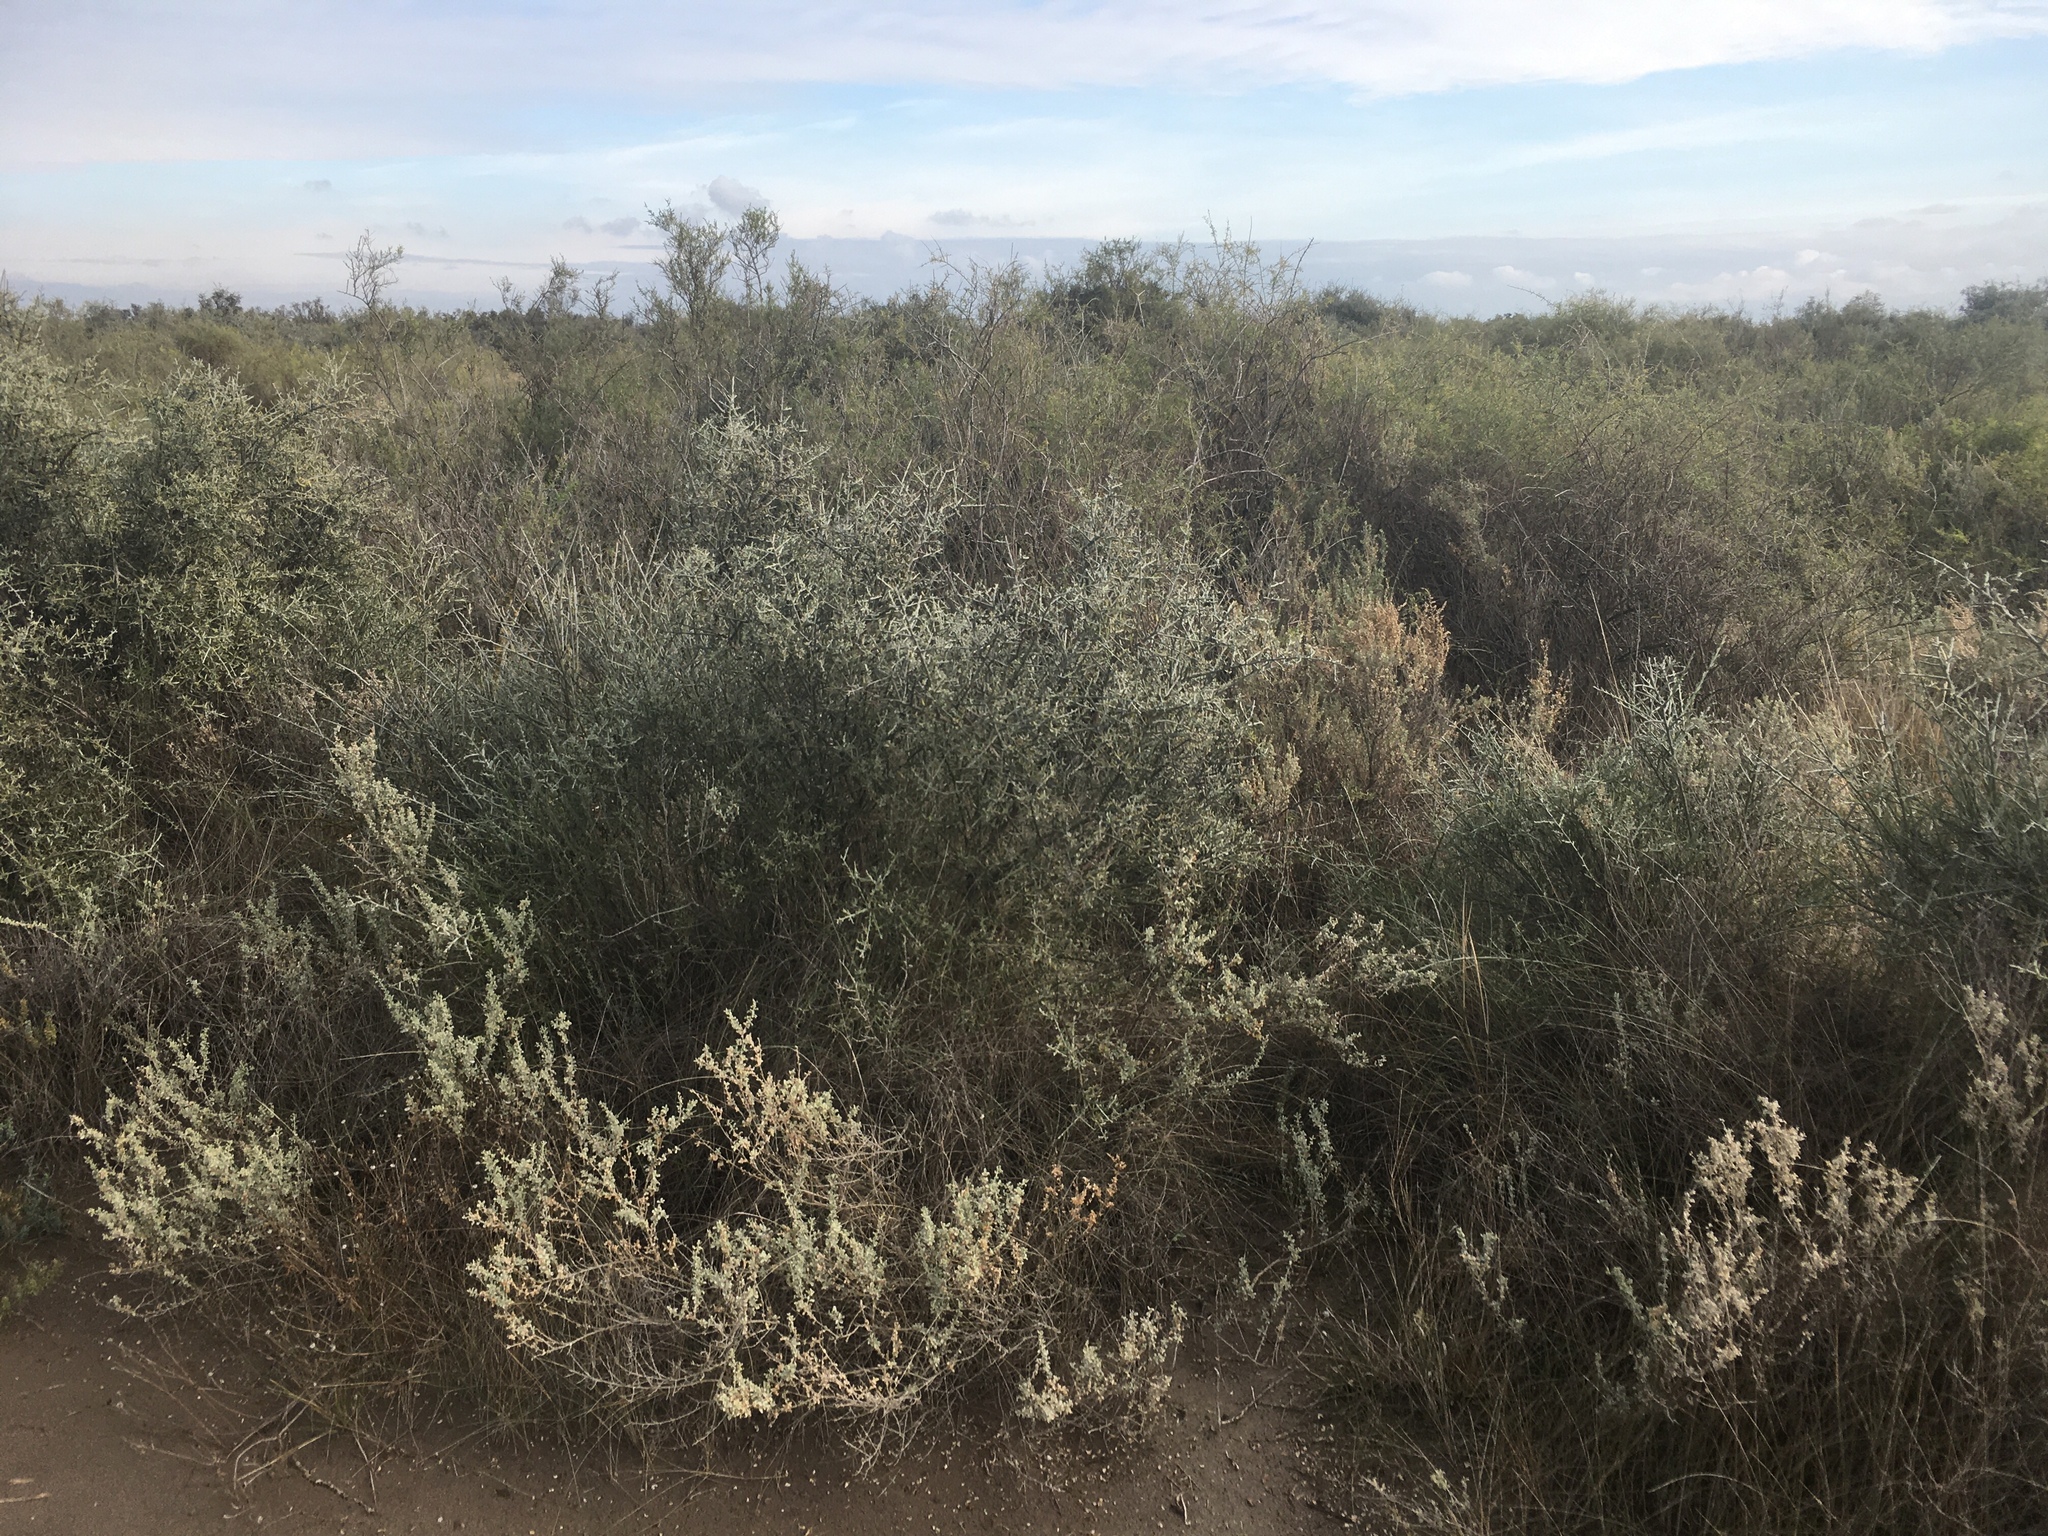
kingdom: Plantae
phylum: Tracheophyta
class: Magnoliopsida
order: Asterales
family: Asteraceae
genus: Cyclolepis
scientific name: Cyclolepis genistoides
